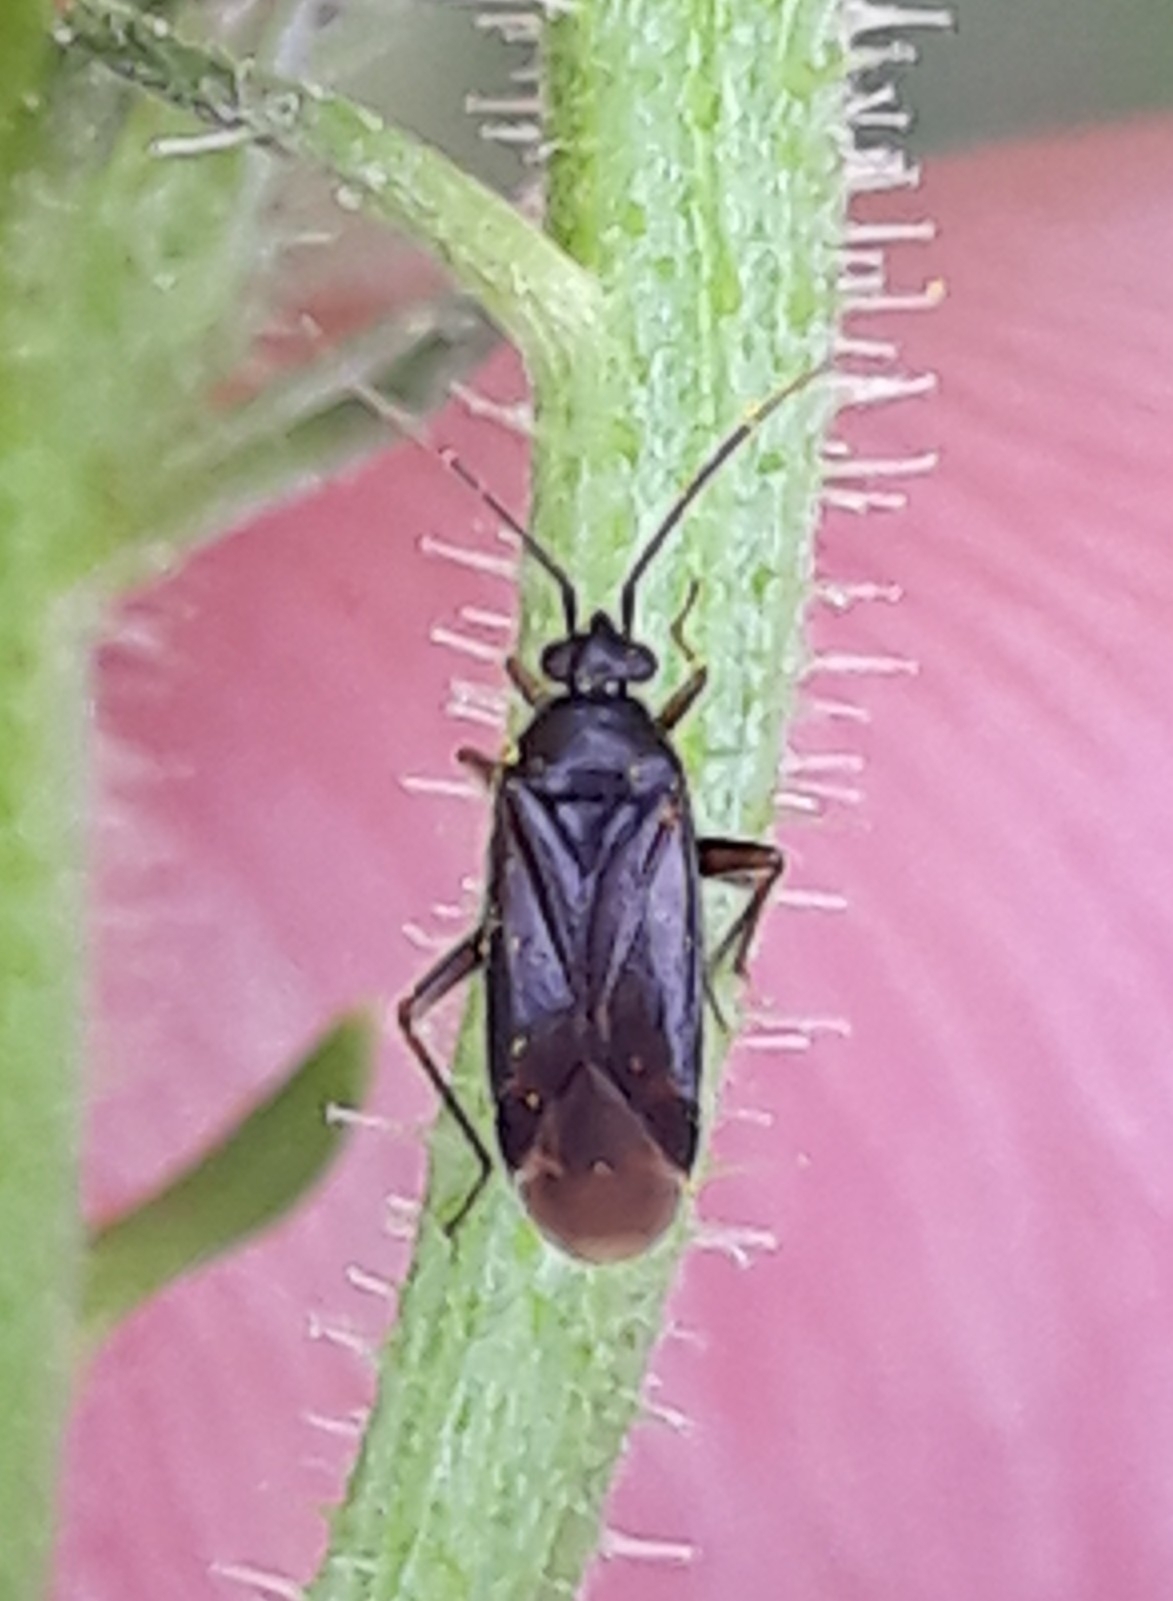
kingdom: Animalia
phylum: Arthropoda
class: Insecta
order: Hemiptera
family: Miridae
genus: Plagiognathus
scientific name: Plagiognathus arbustorum
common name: Plant bug
